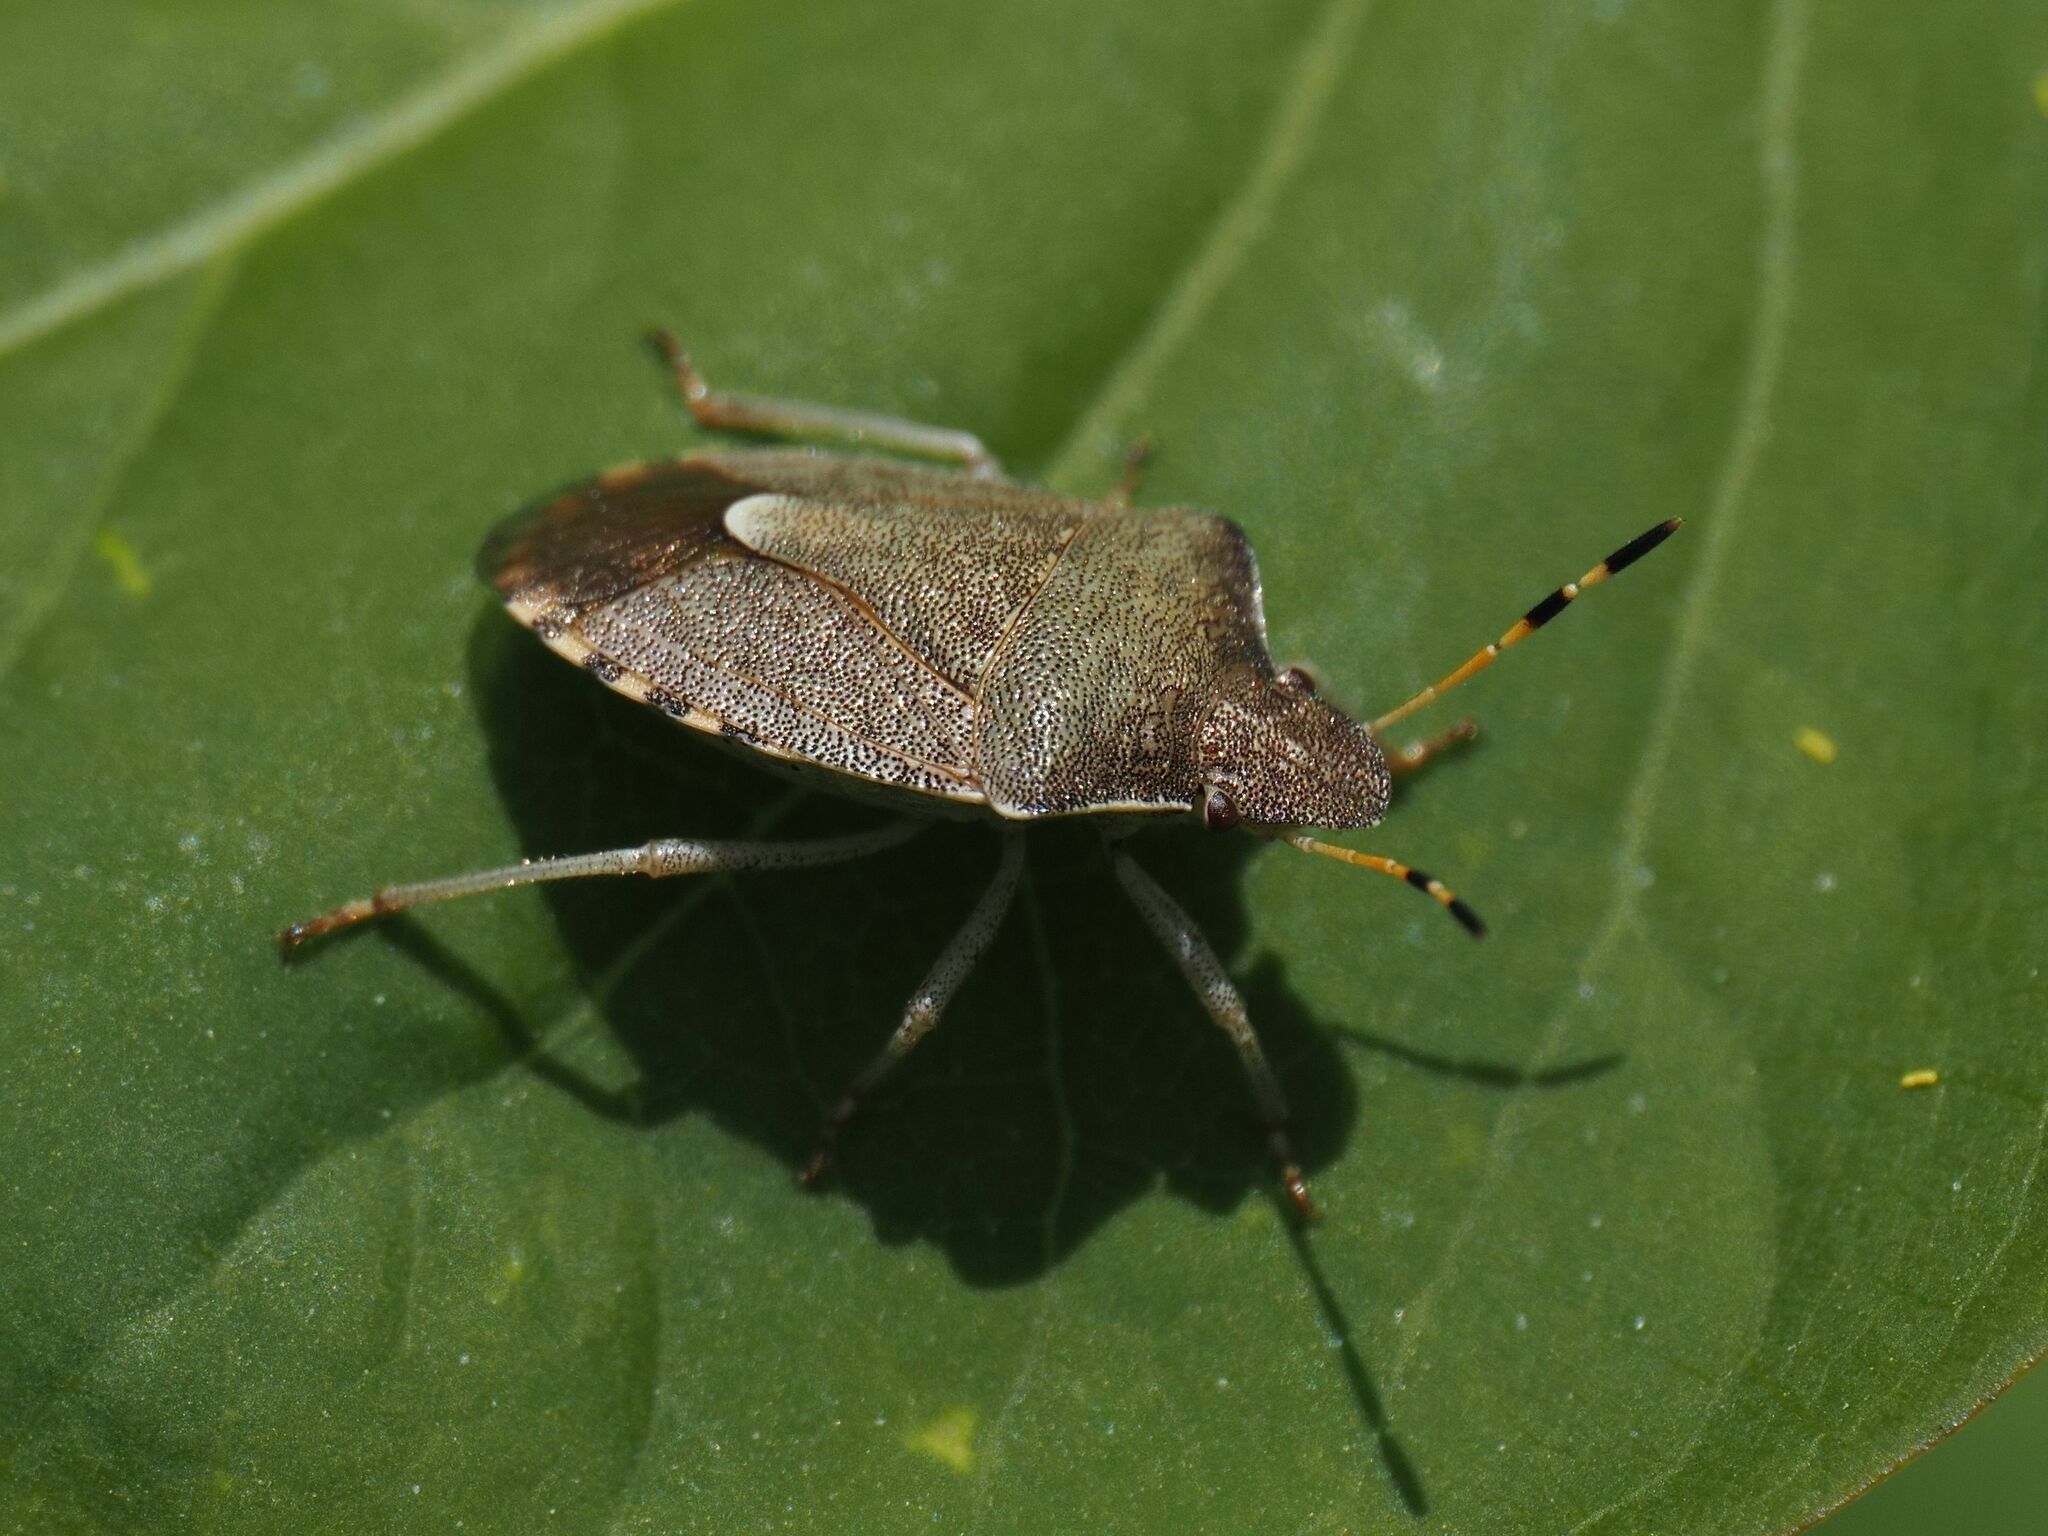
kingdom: Animalia
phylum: Arthropoda
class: Insecta
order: Hemiptera
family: Pentatomidae
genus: Holcostethus
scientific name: Holcostethus strictus
